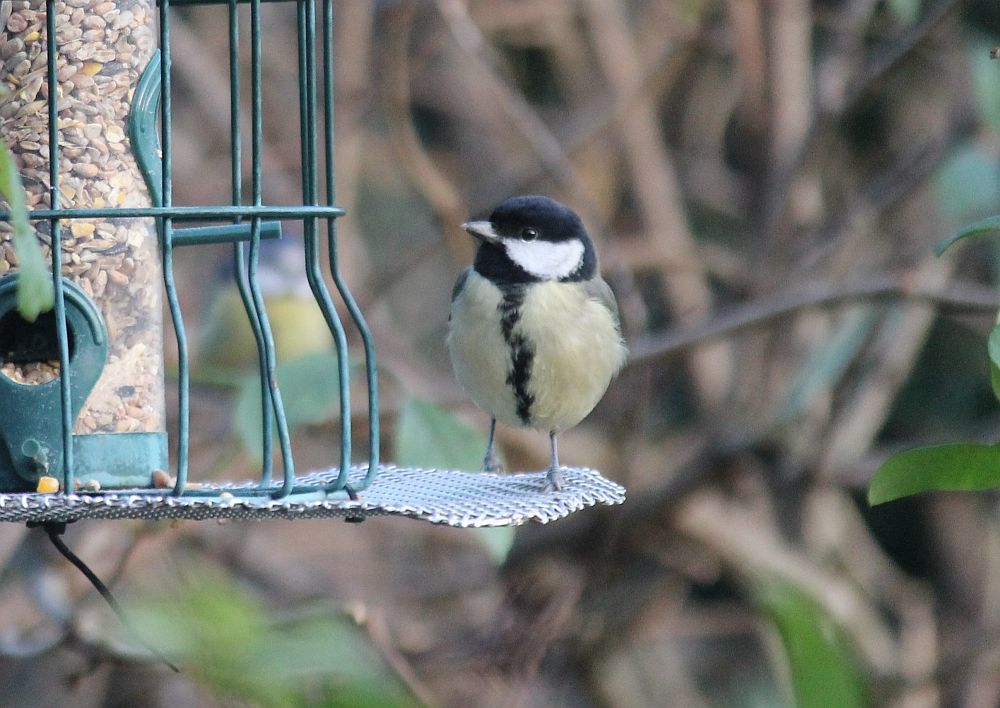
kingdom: Animalia
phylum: Chordata
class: Aves
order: Passeriformes
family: Paridae
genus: Parus
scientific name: Parus major
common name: Great tit
